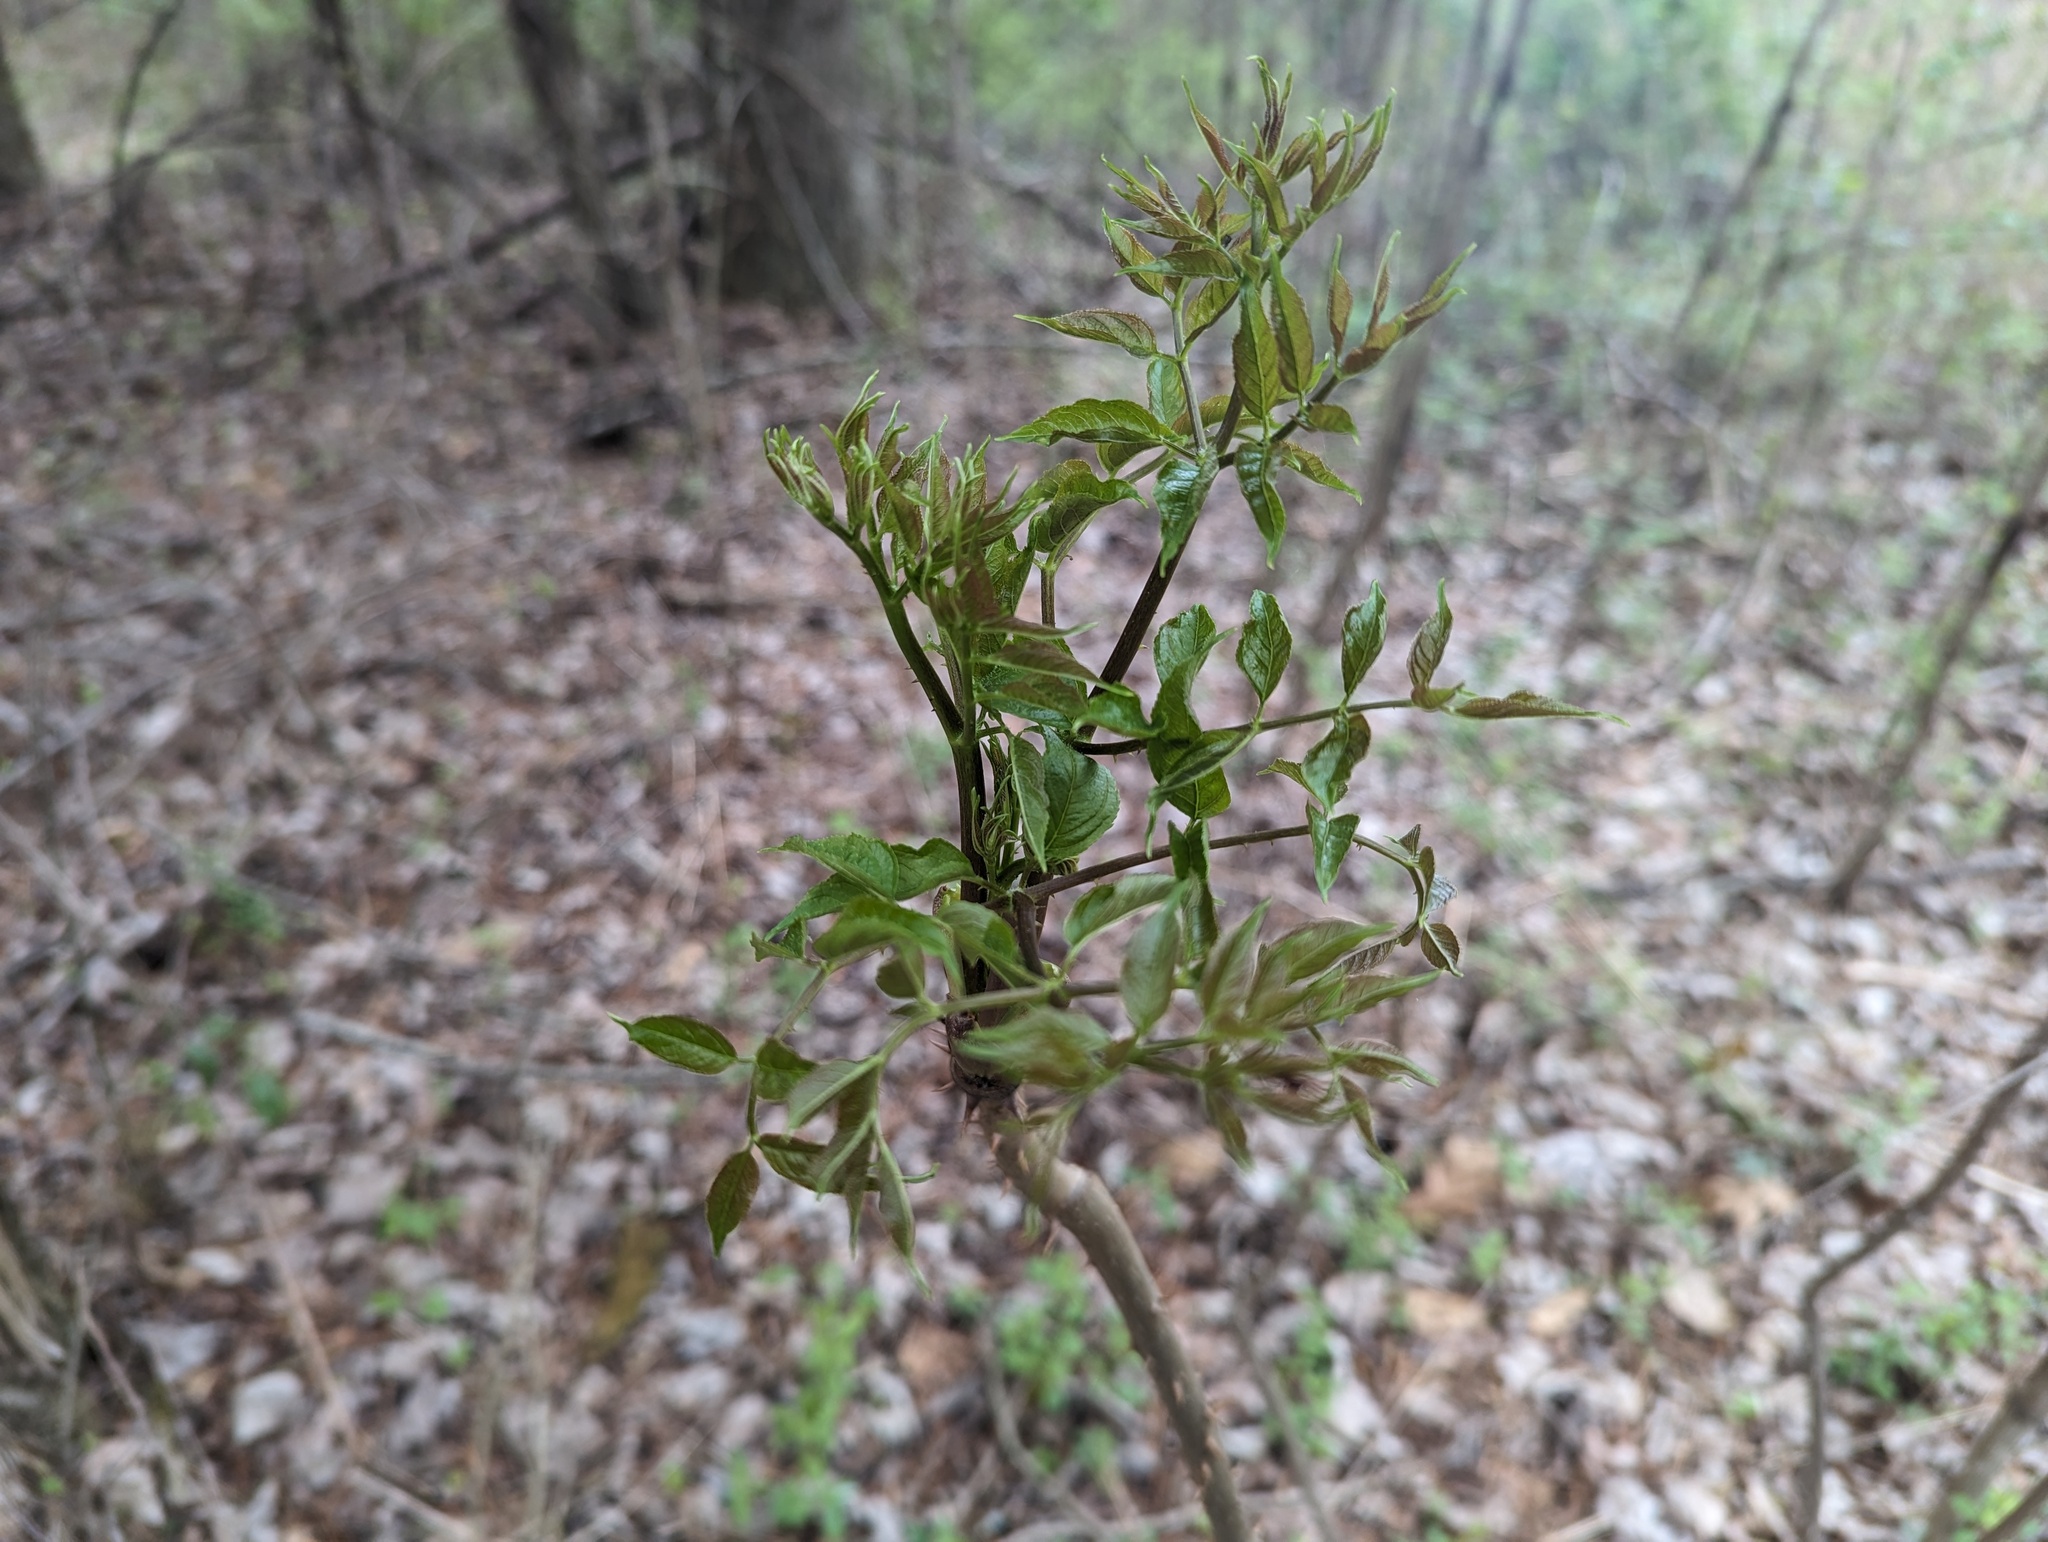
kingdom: Plantae
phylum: Tracheophyta
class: Magnoliopsida
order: Apiales
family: Araliaceae
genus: Aralia
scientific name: Aralia spinosa
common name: Hercules'-club
